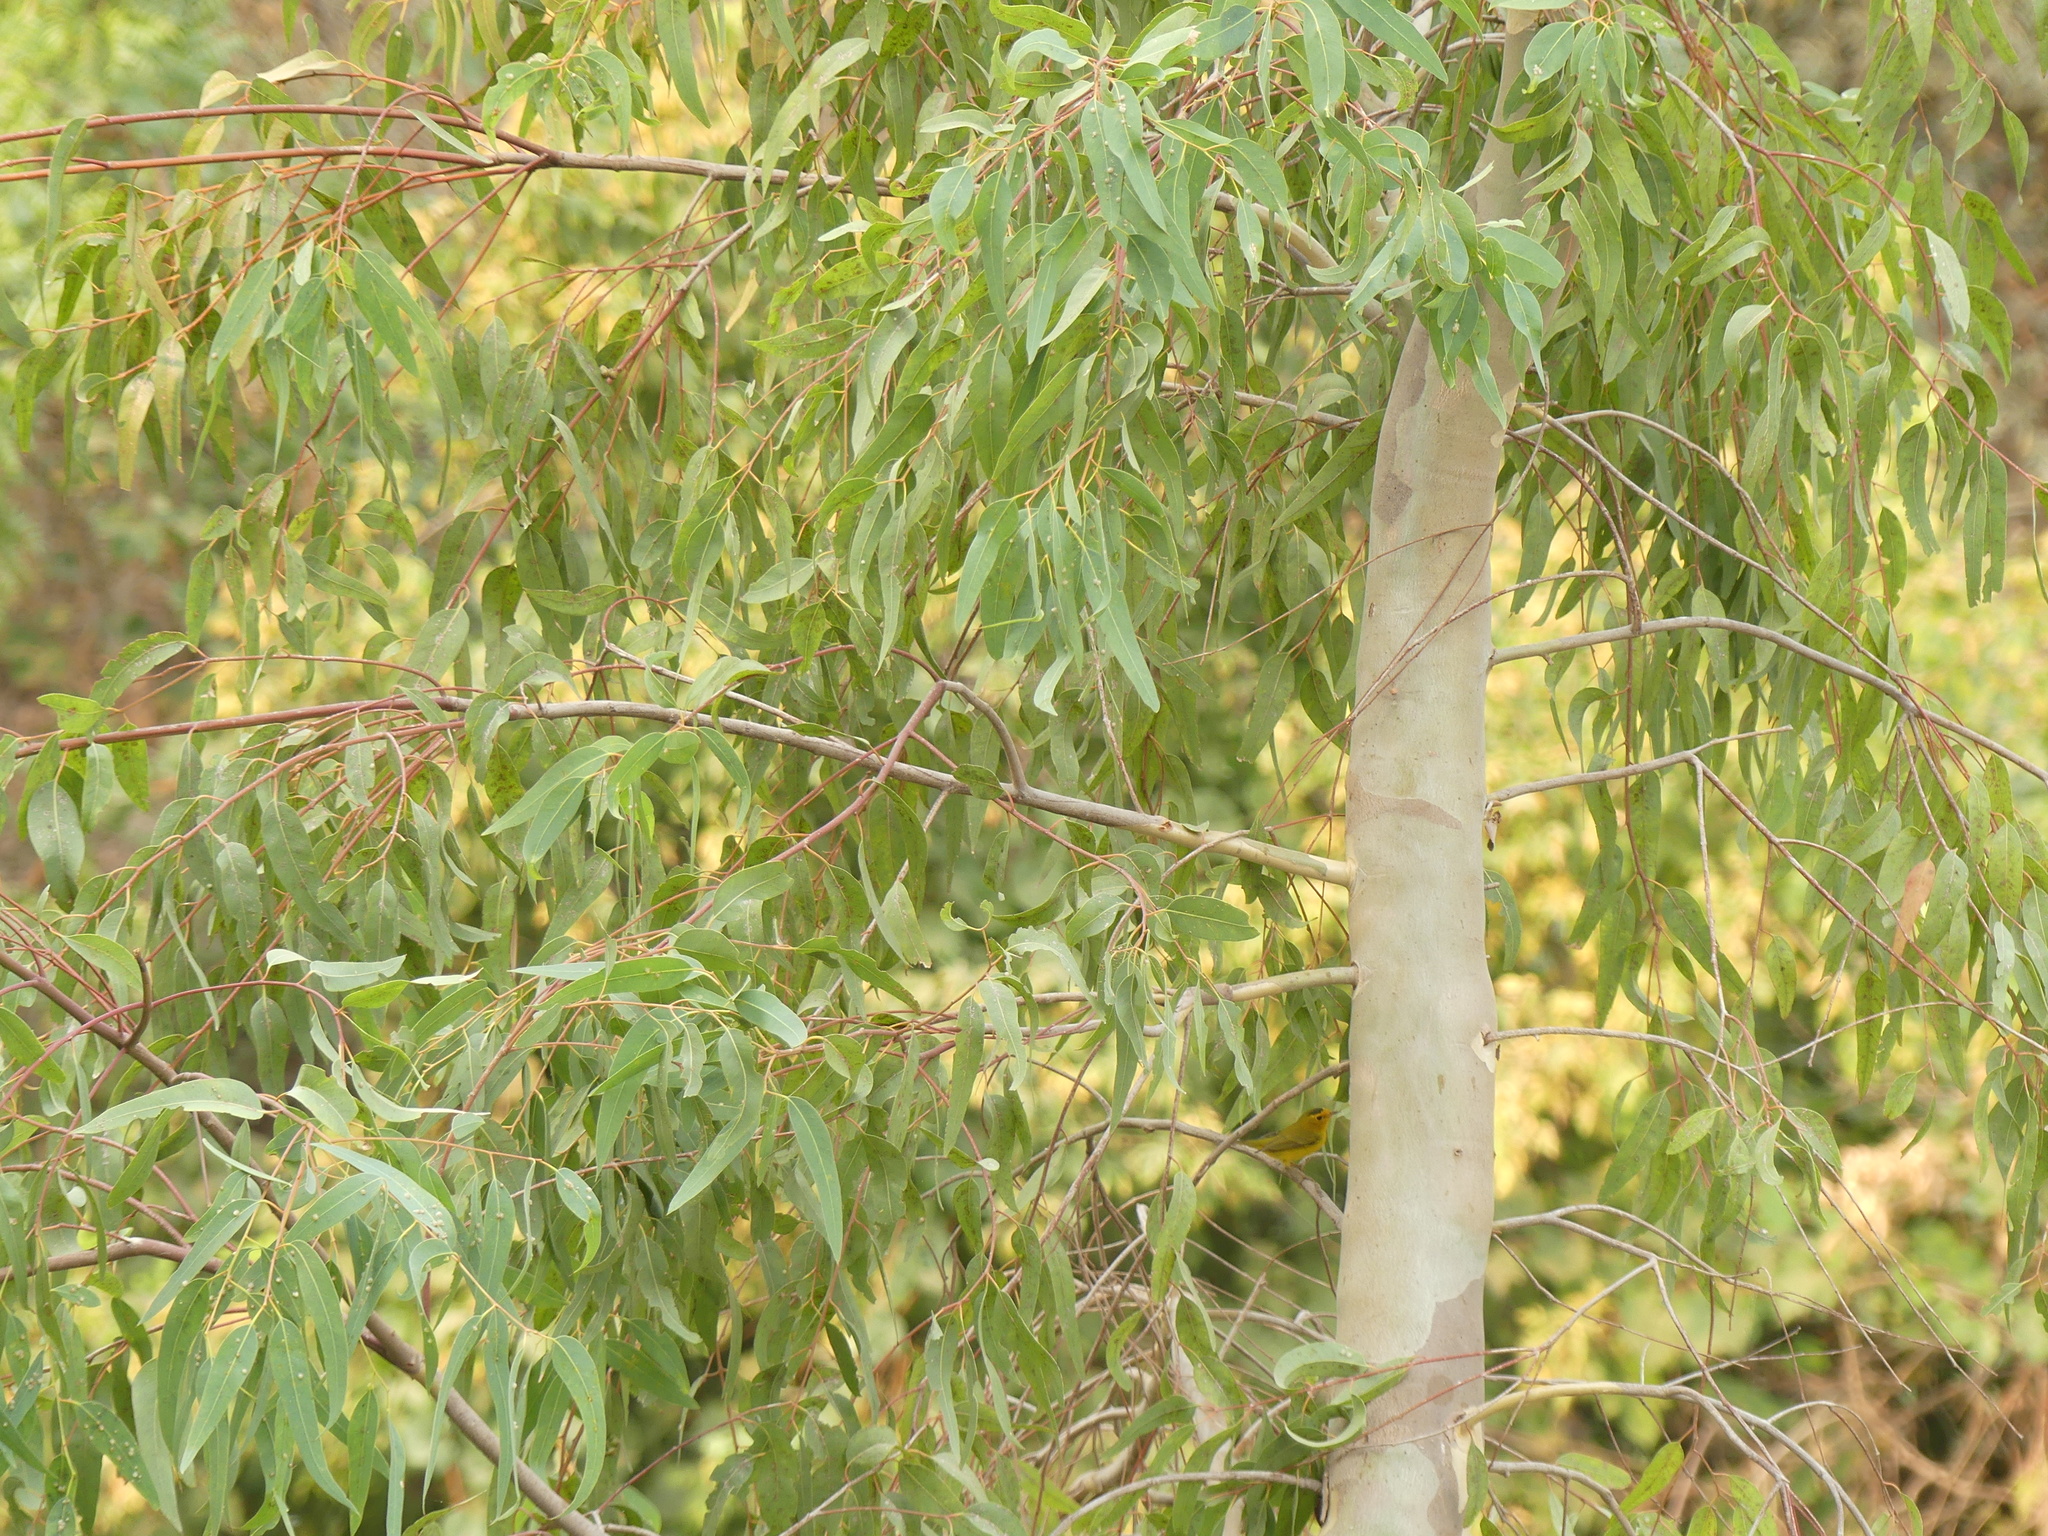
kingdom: Animalia
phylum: Chordata
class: Aves
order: Passeriformes
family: Parulidae
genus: Cardellina
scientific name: Cardellina pusilla
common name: Wilson's warbler
